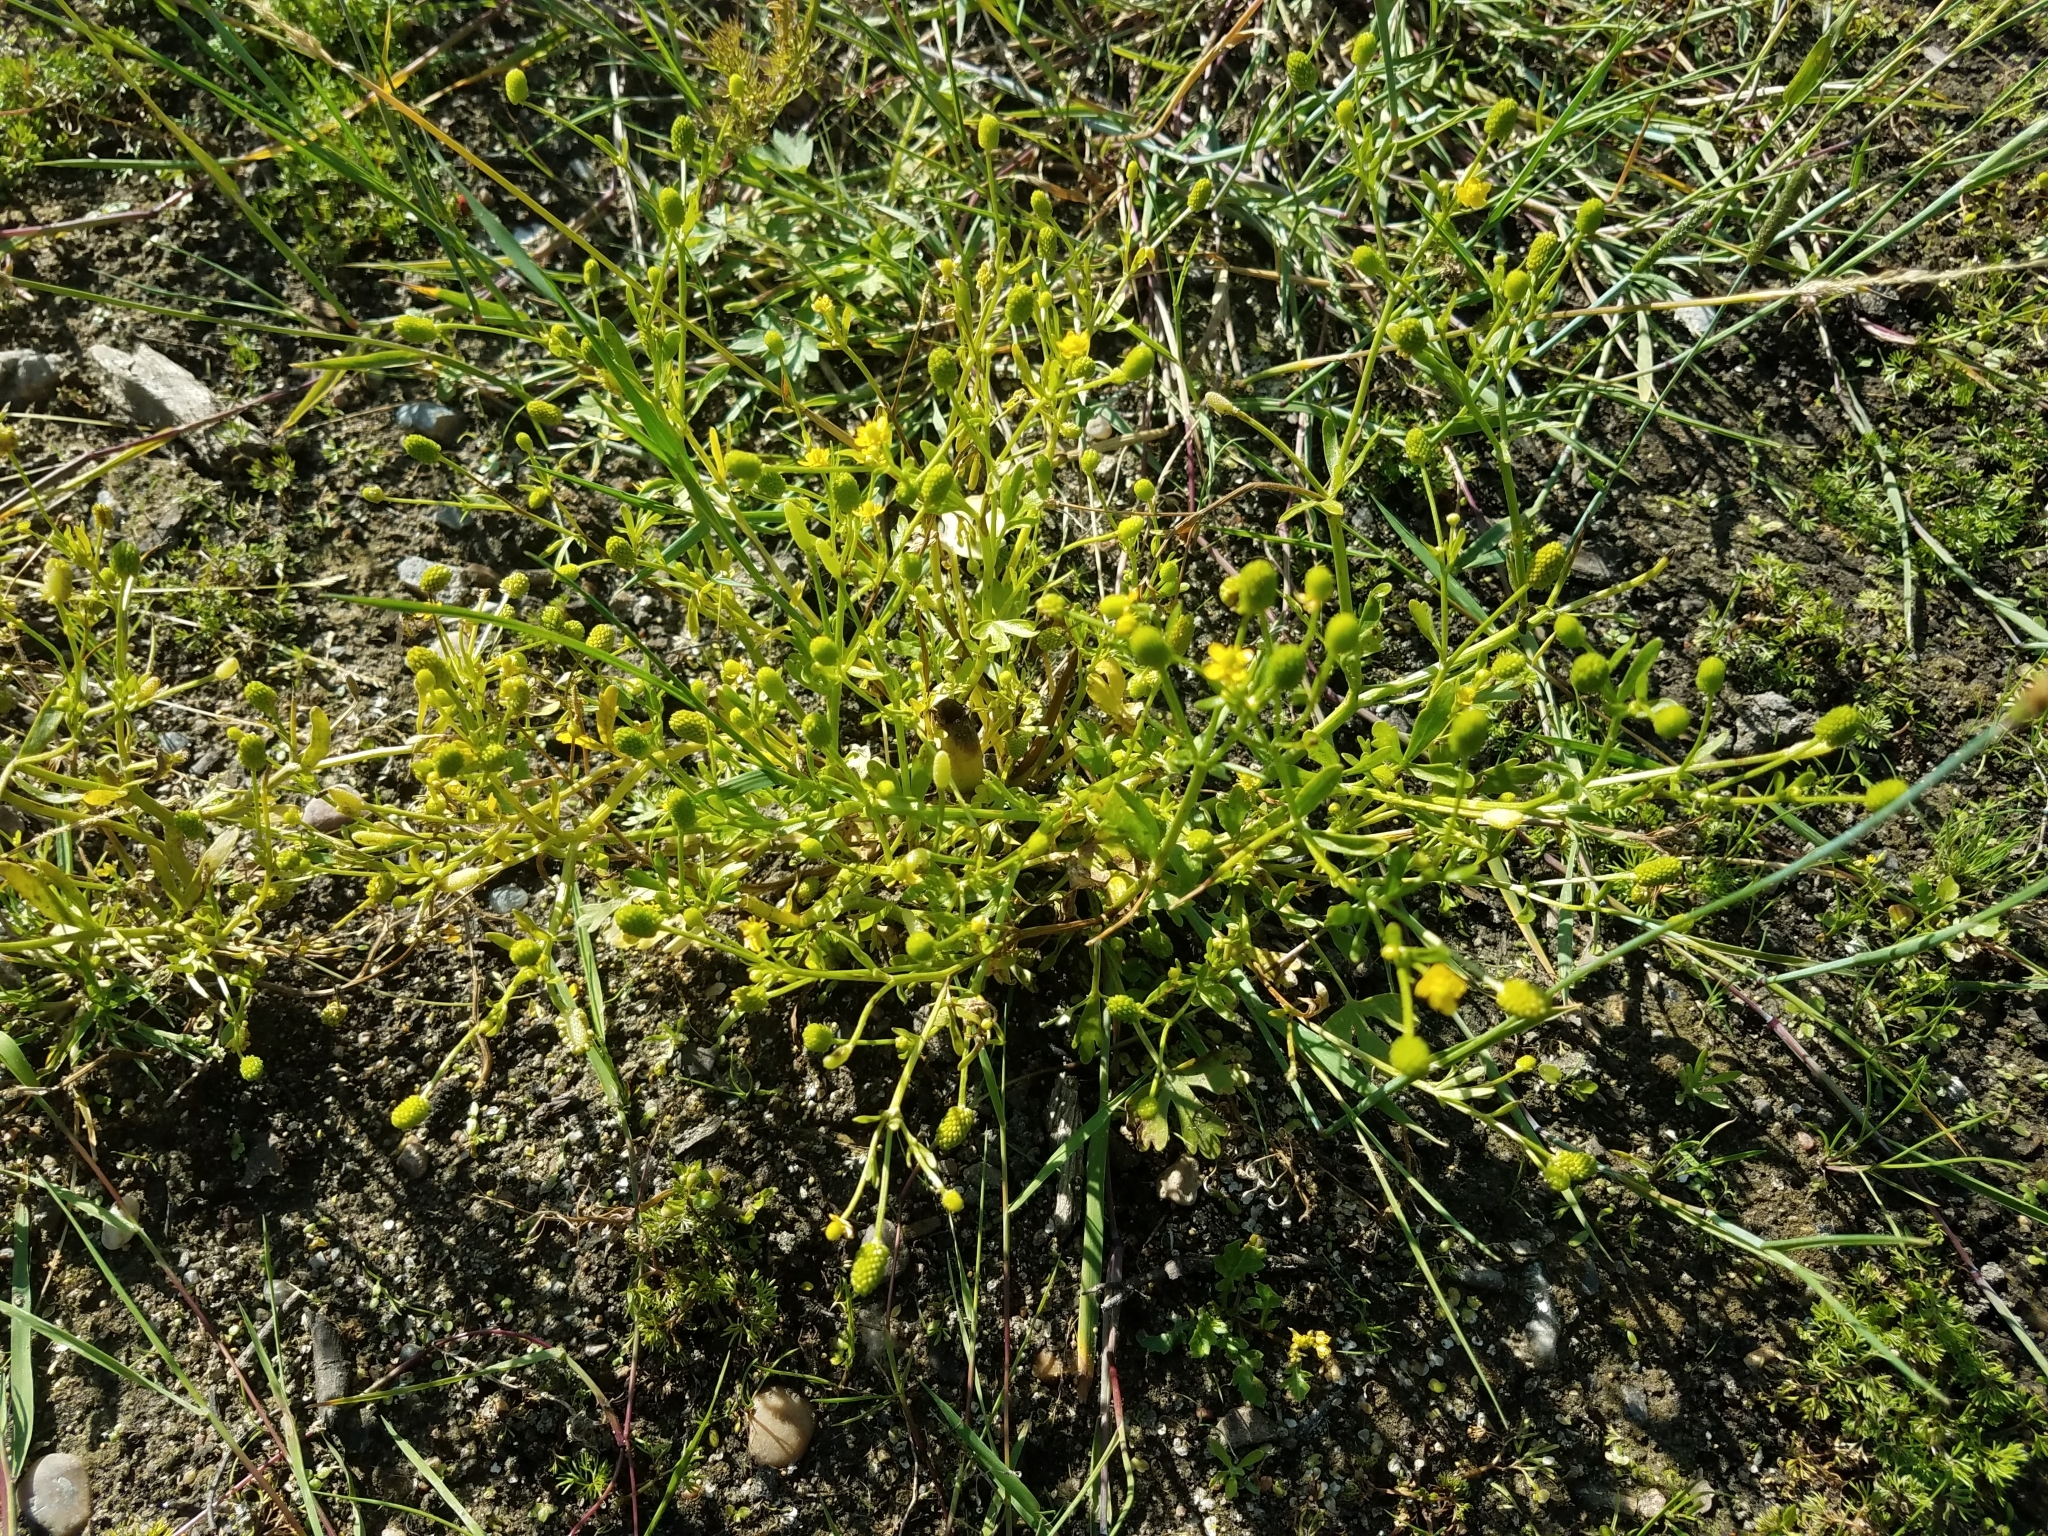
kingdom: Plantae
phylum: Tracheophyta
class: Magnoliopsida
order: Ranunculales
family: Ranunculaceae
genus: Ranunculus
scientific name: Ranunculus sceleratus
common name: Celery-leaved buttercup
